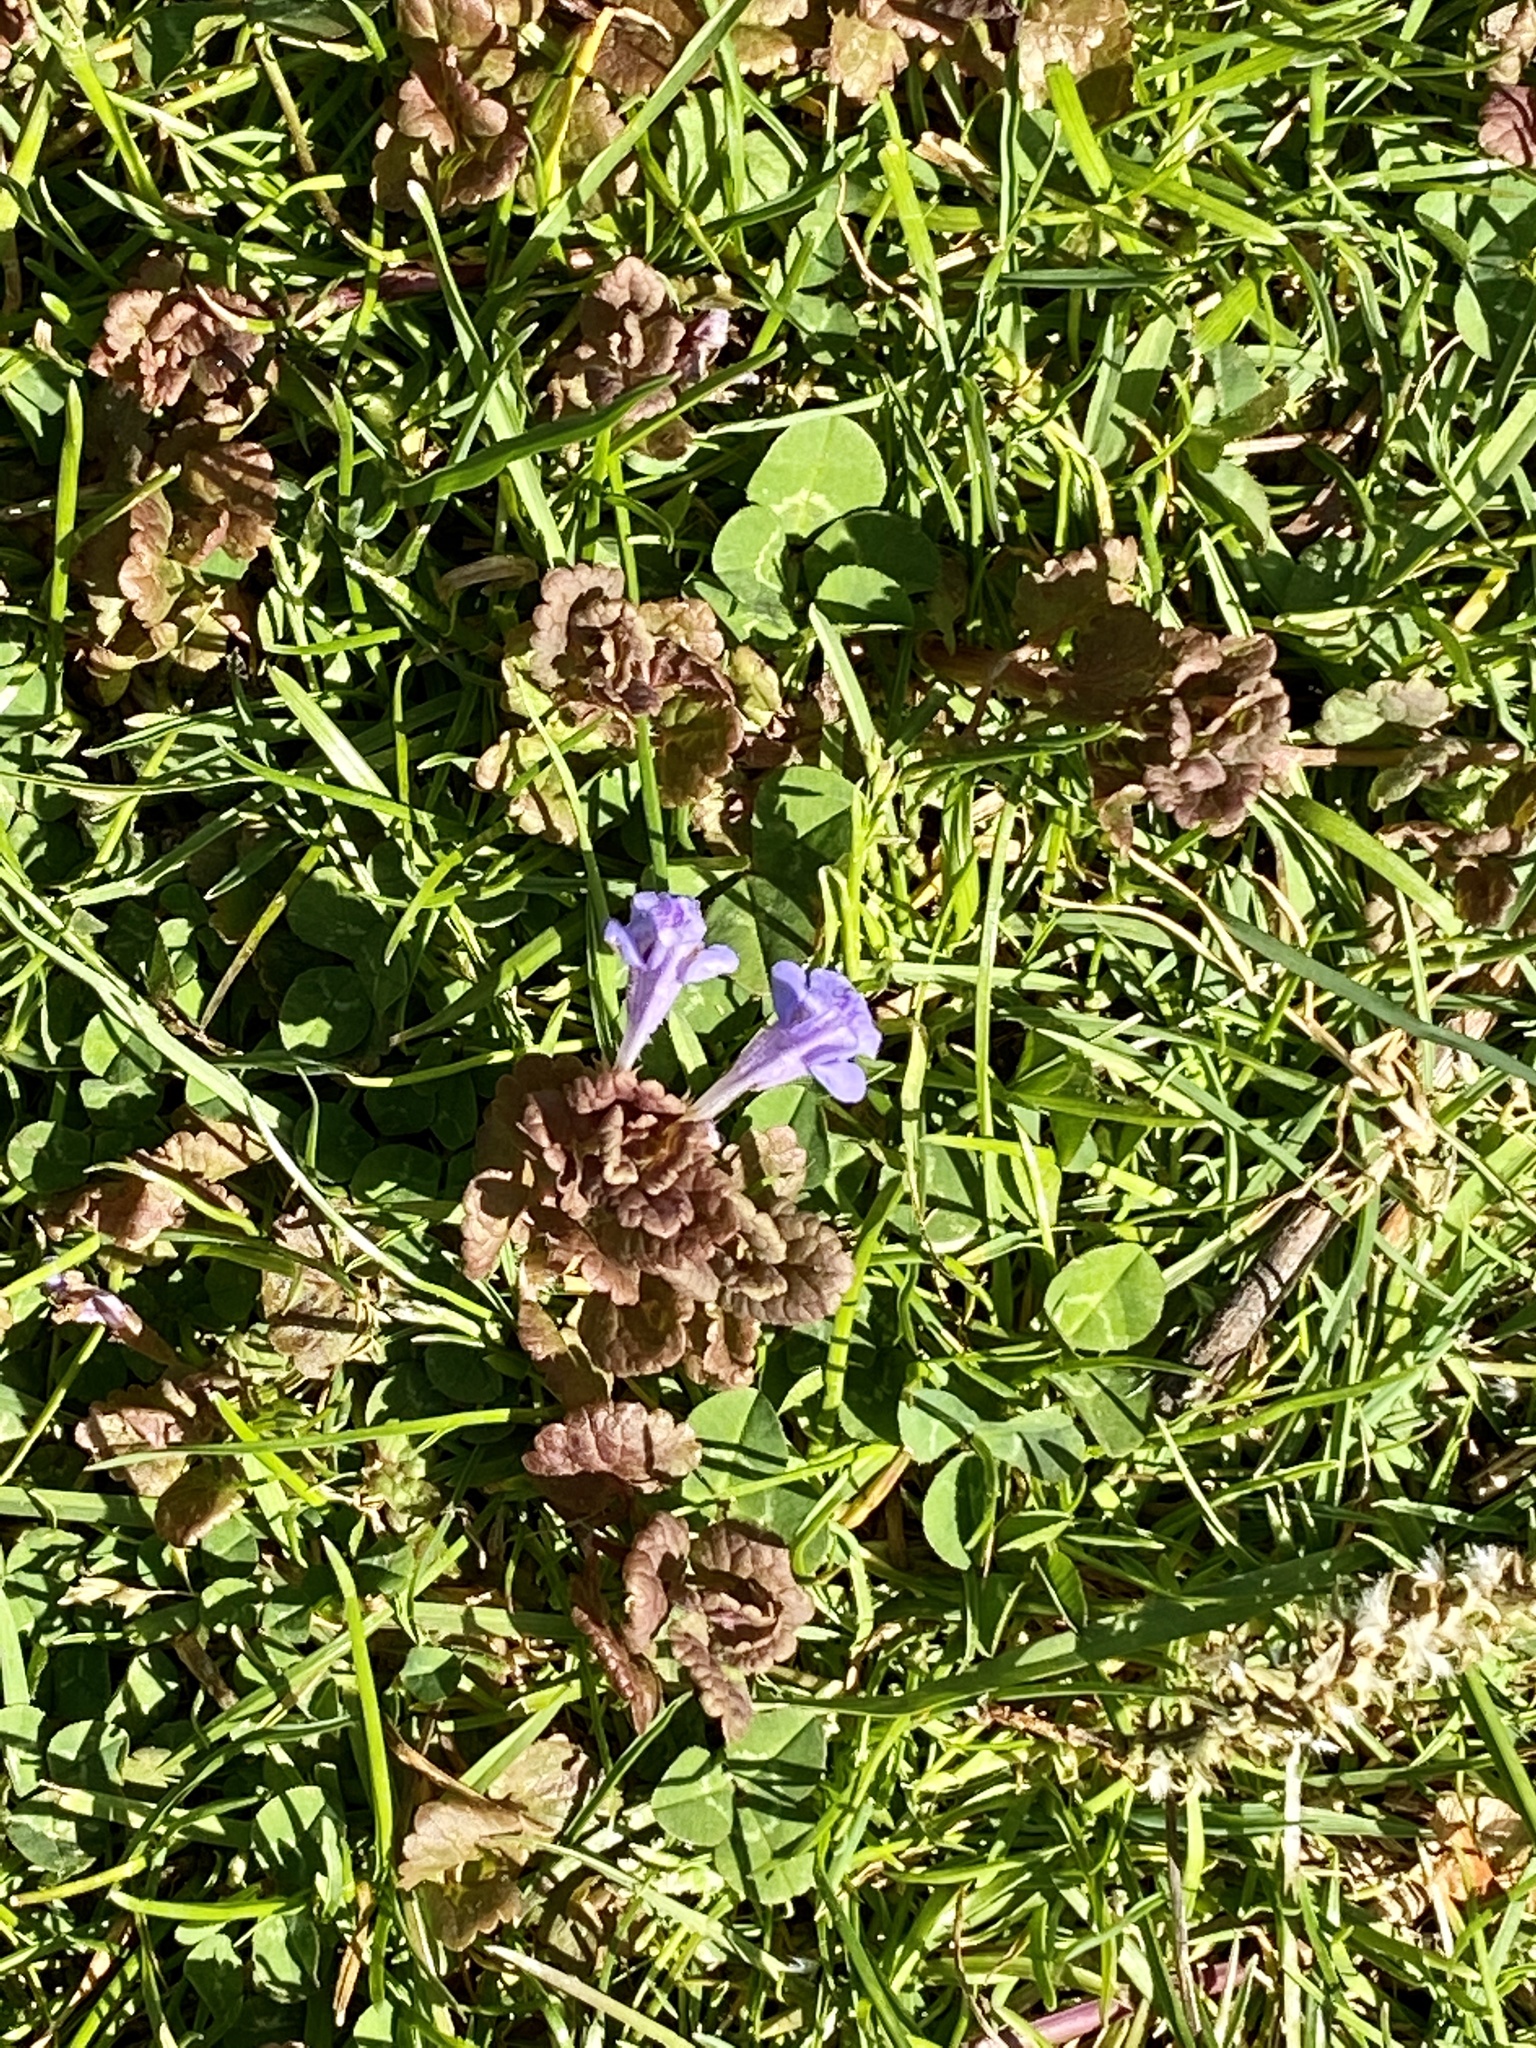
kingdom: Plantae
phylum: Tracheophyta
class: Magnoliopsida
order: Lamiales
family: Lamiaceae
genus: Glechoma
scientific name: Glechoma hederacea
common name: Ground ivy
